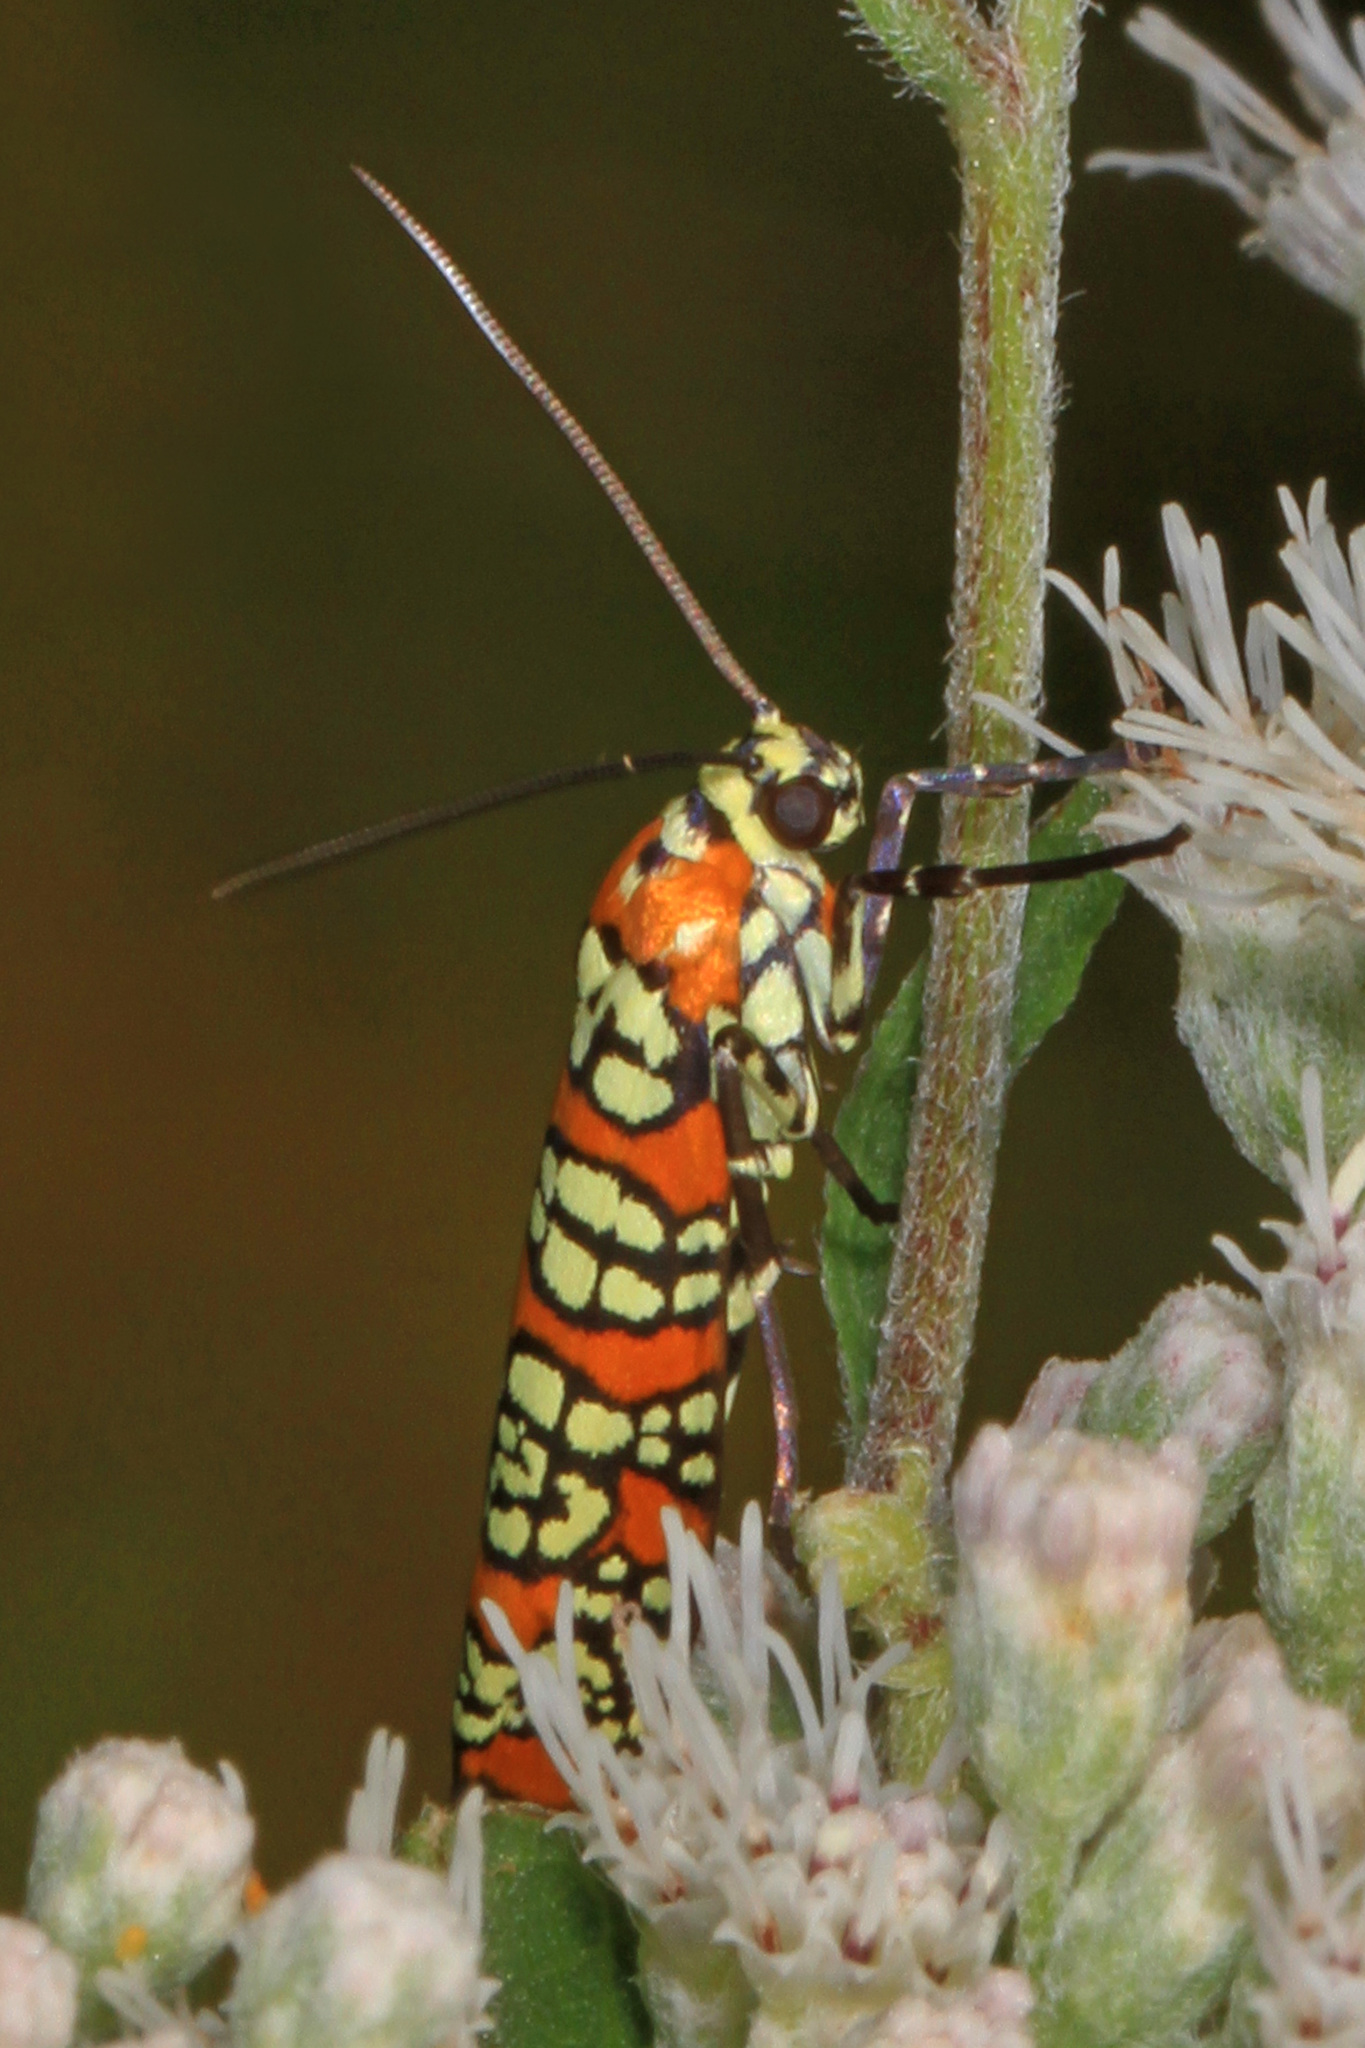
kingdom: Animalia
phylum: Arthropoda
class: Insecta
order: Lepidoptera
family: Attevidae
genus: Atteva
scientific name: Atteva punctella
